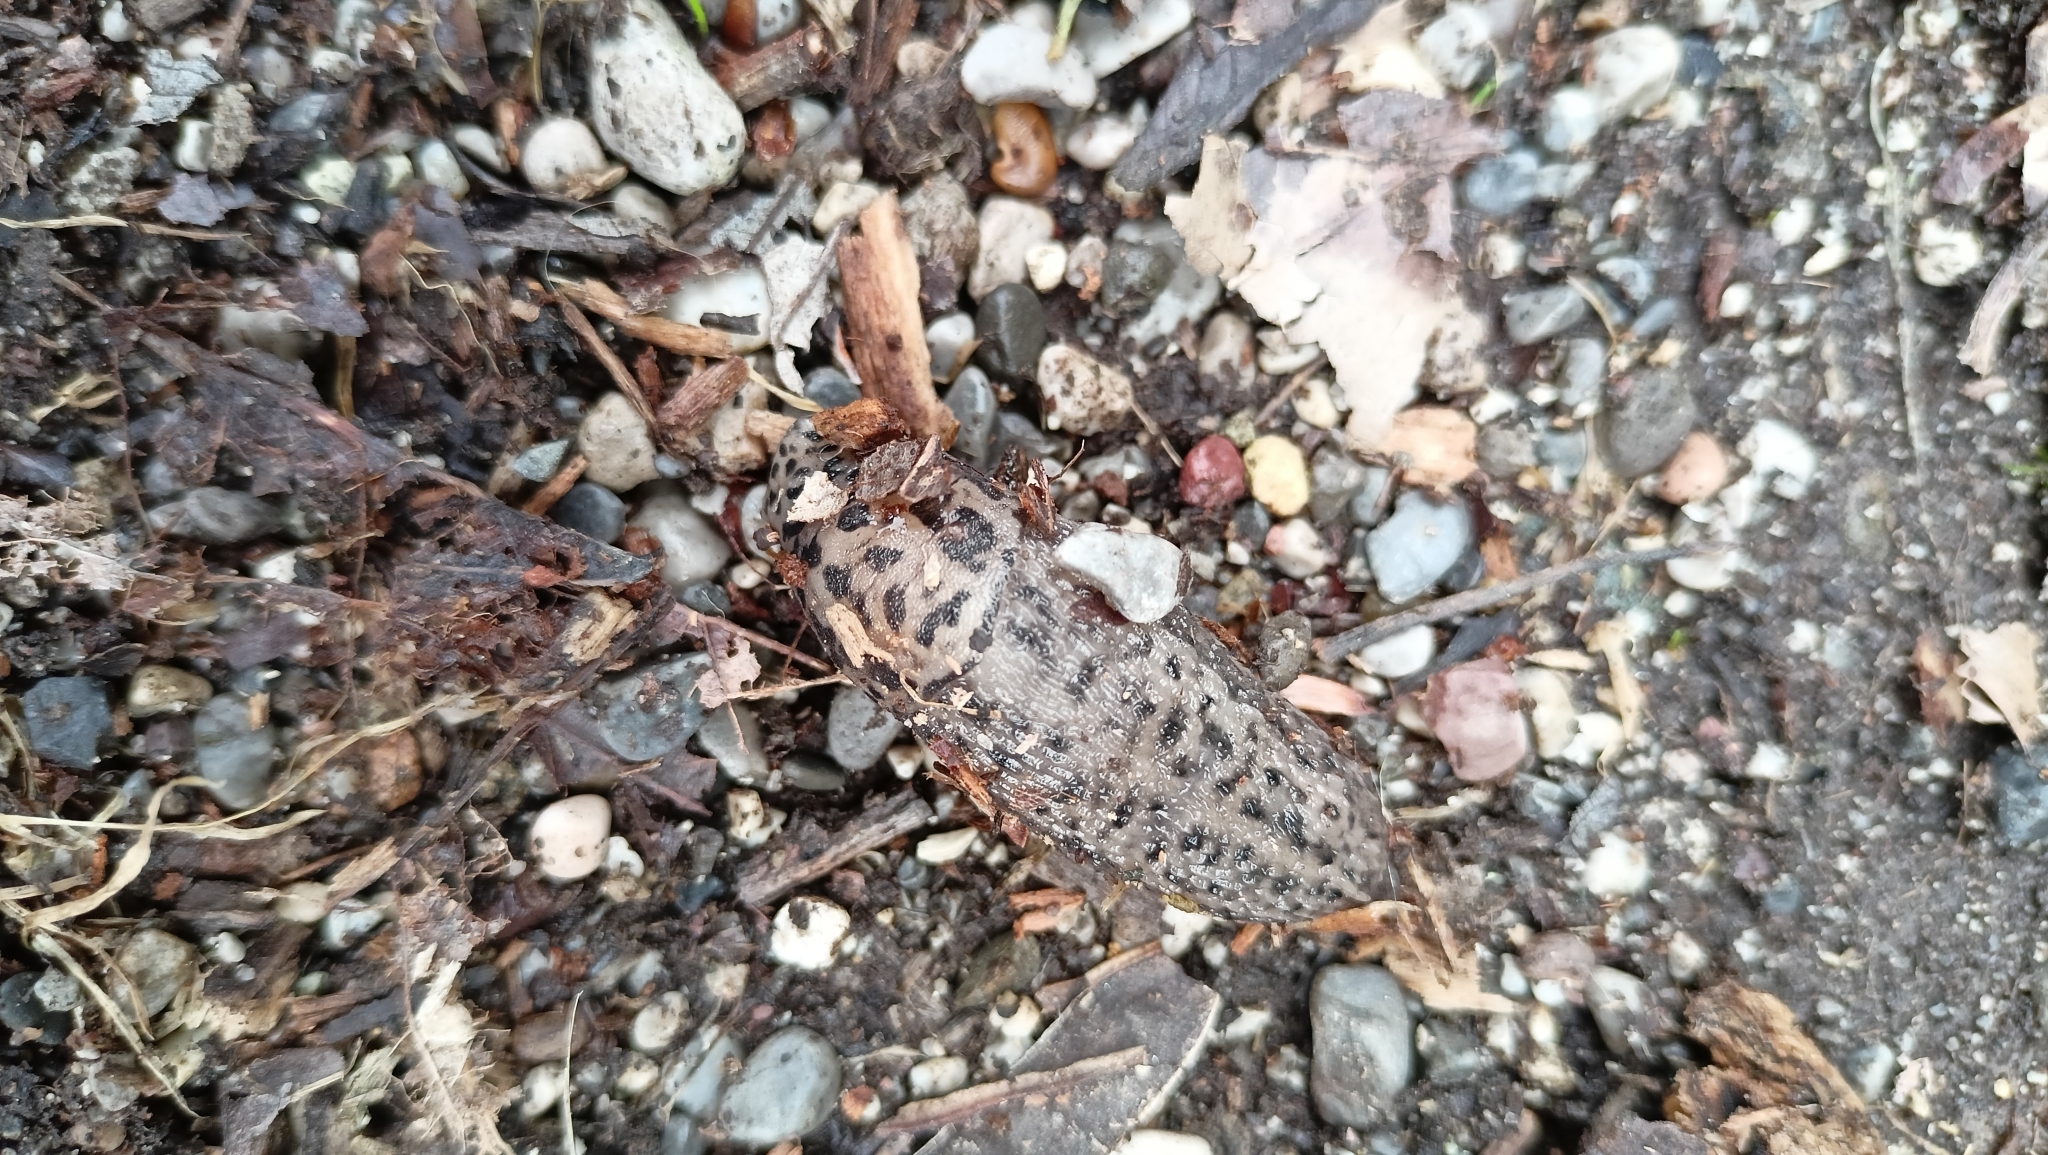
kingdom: Animalia
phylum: Mollusca
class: Gastropoda
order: Stylommatophora
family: Limacidae
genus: Limax
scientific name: Limax maximus
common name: Great grey slug
